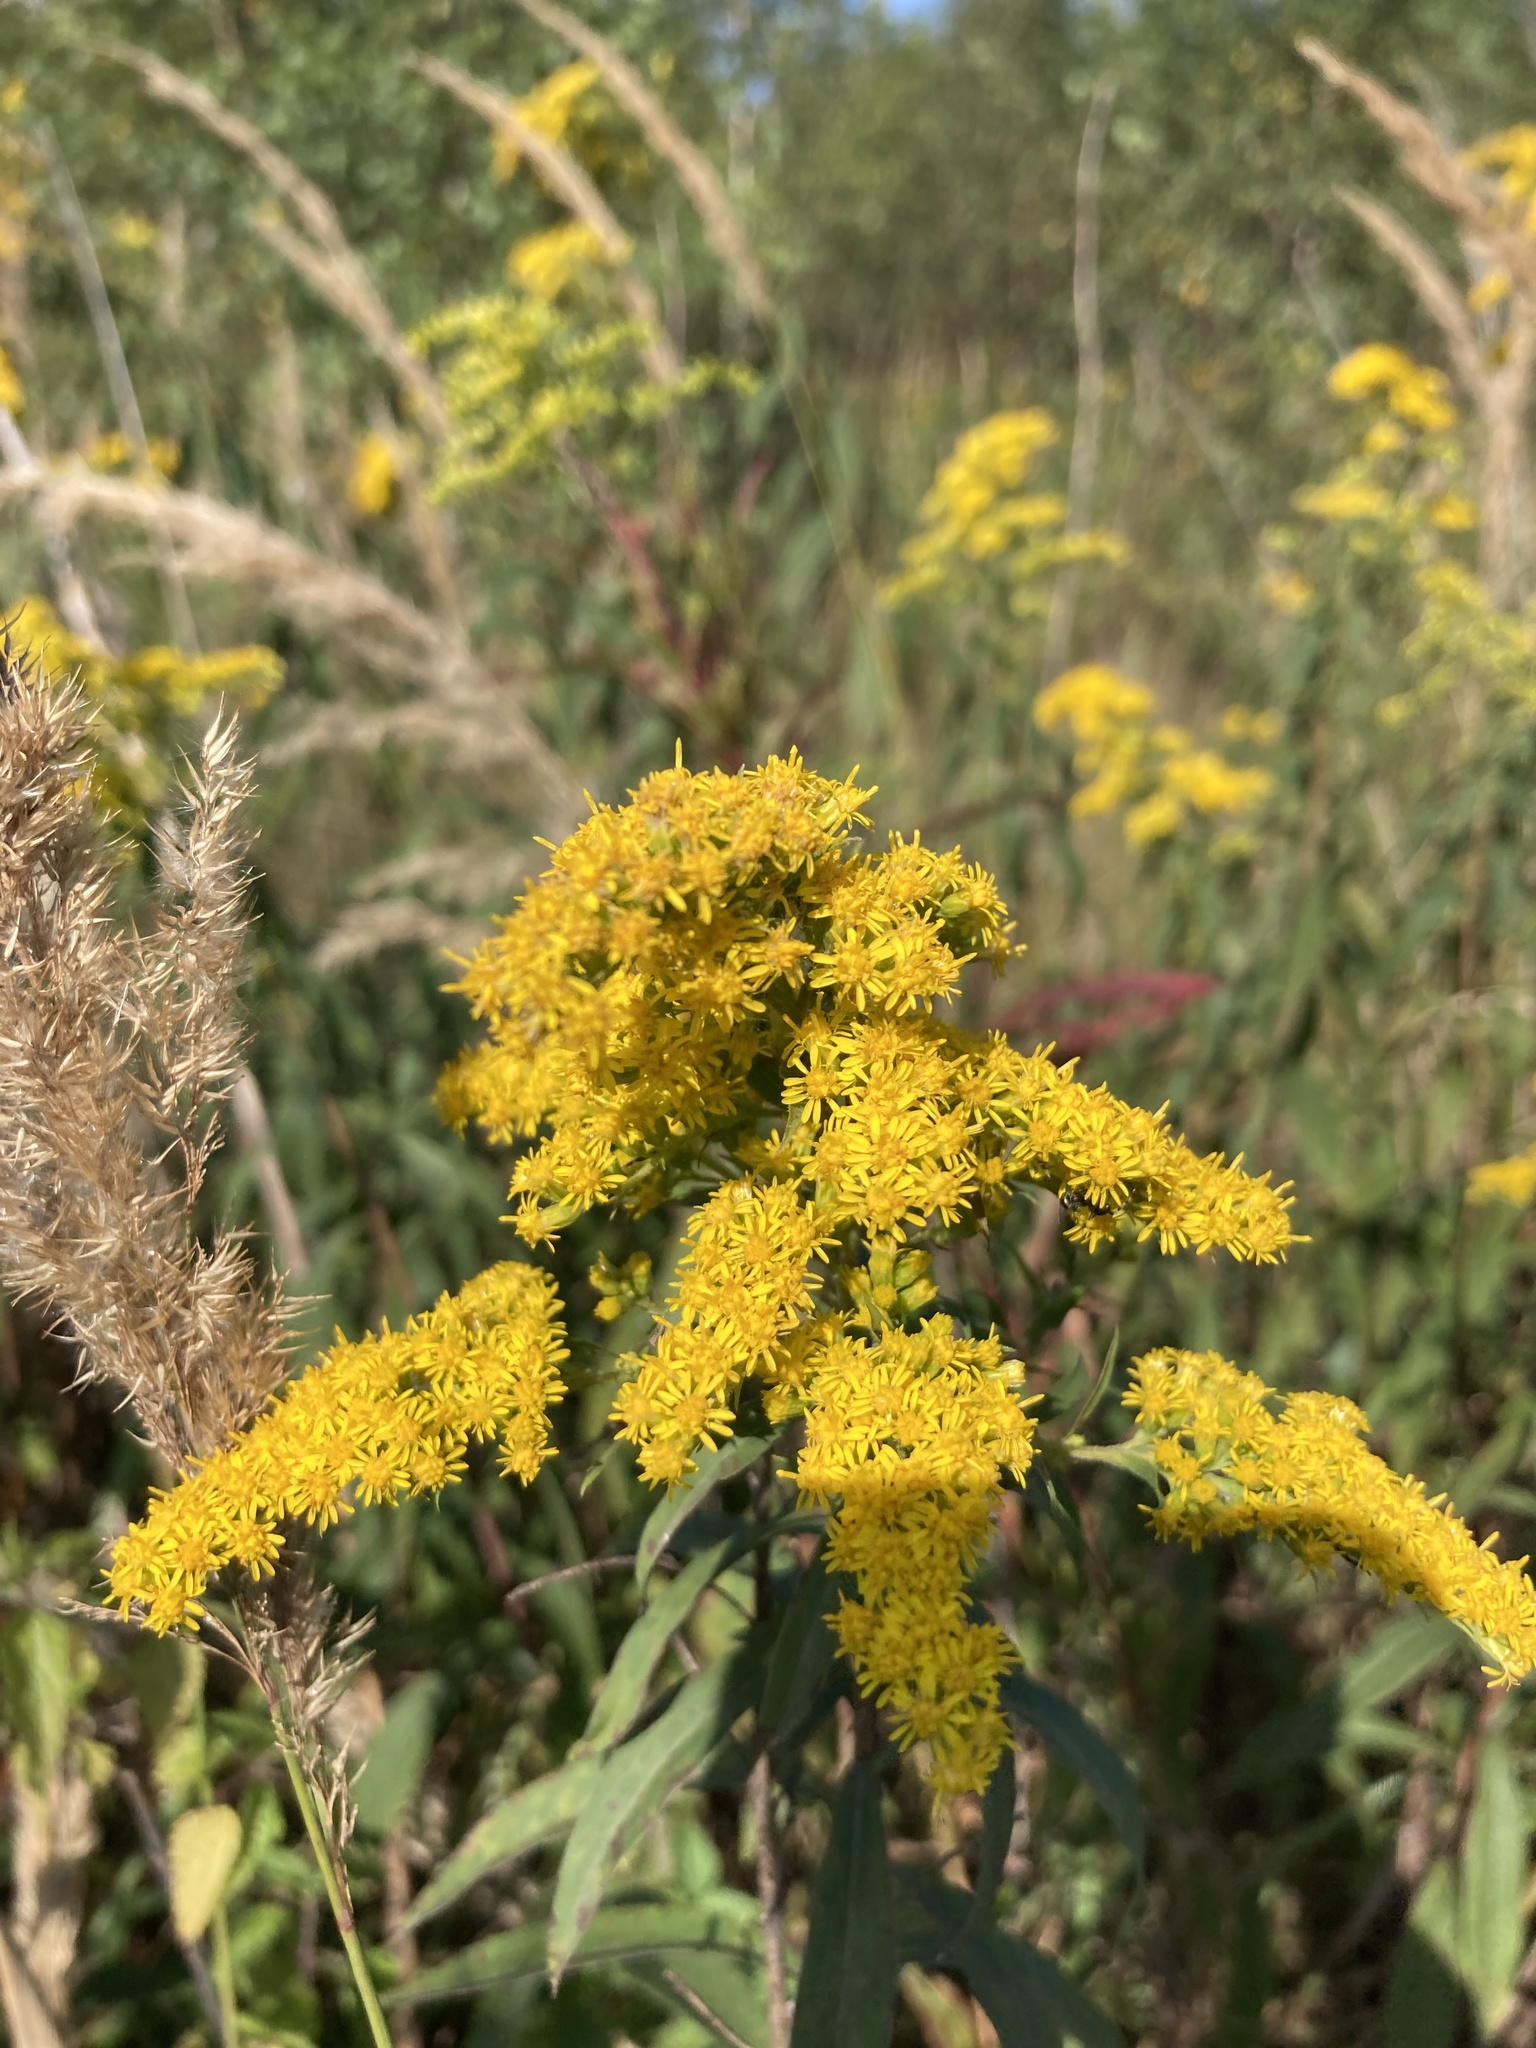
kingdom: Plantae
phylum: Tracheophyta
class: Magnoliopsida
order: Asterales
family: Asteraceae
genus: Solidago
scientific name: Solidago gigantea
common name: Giant goldenrod
